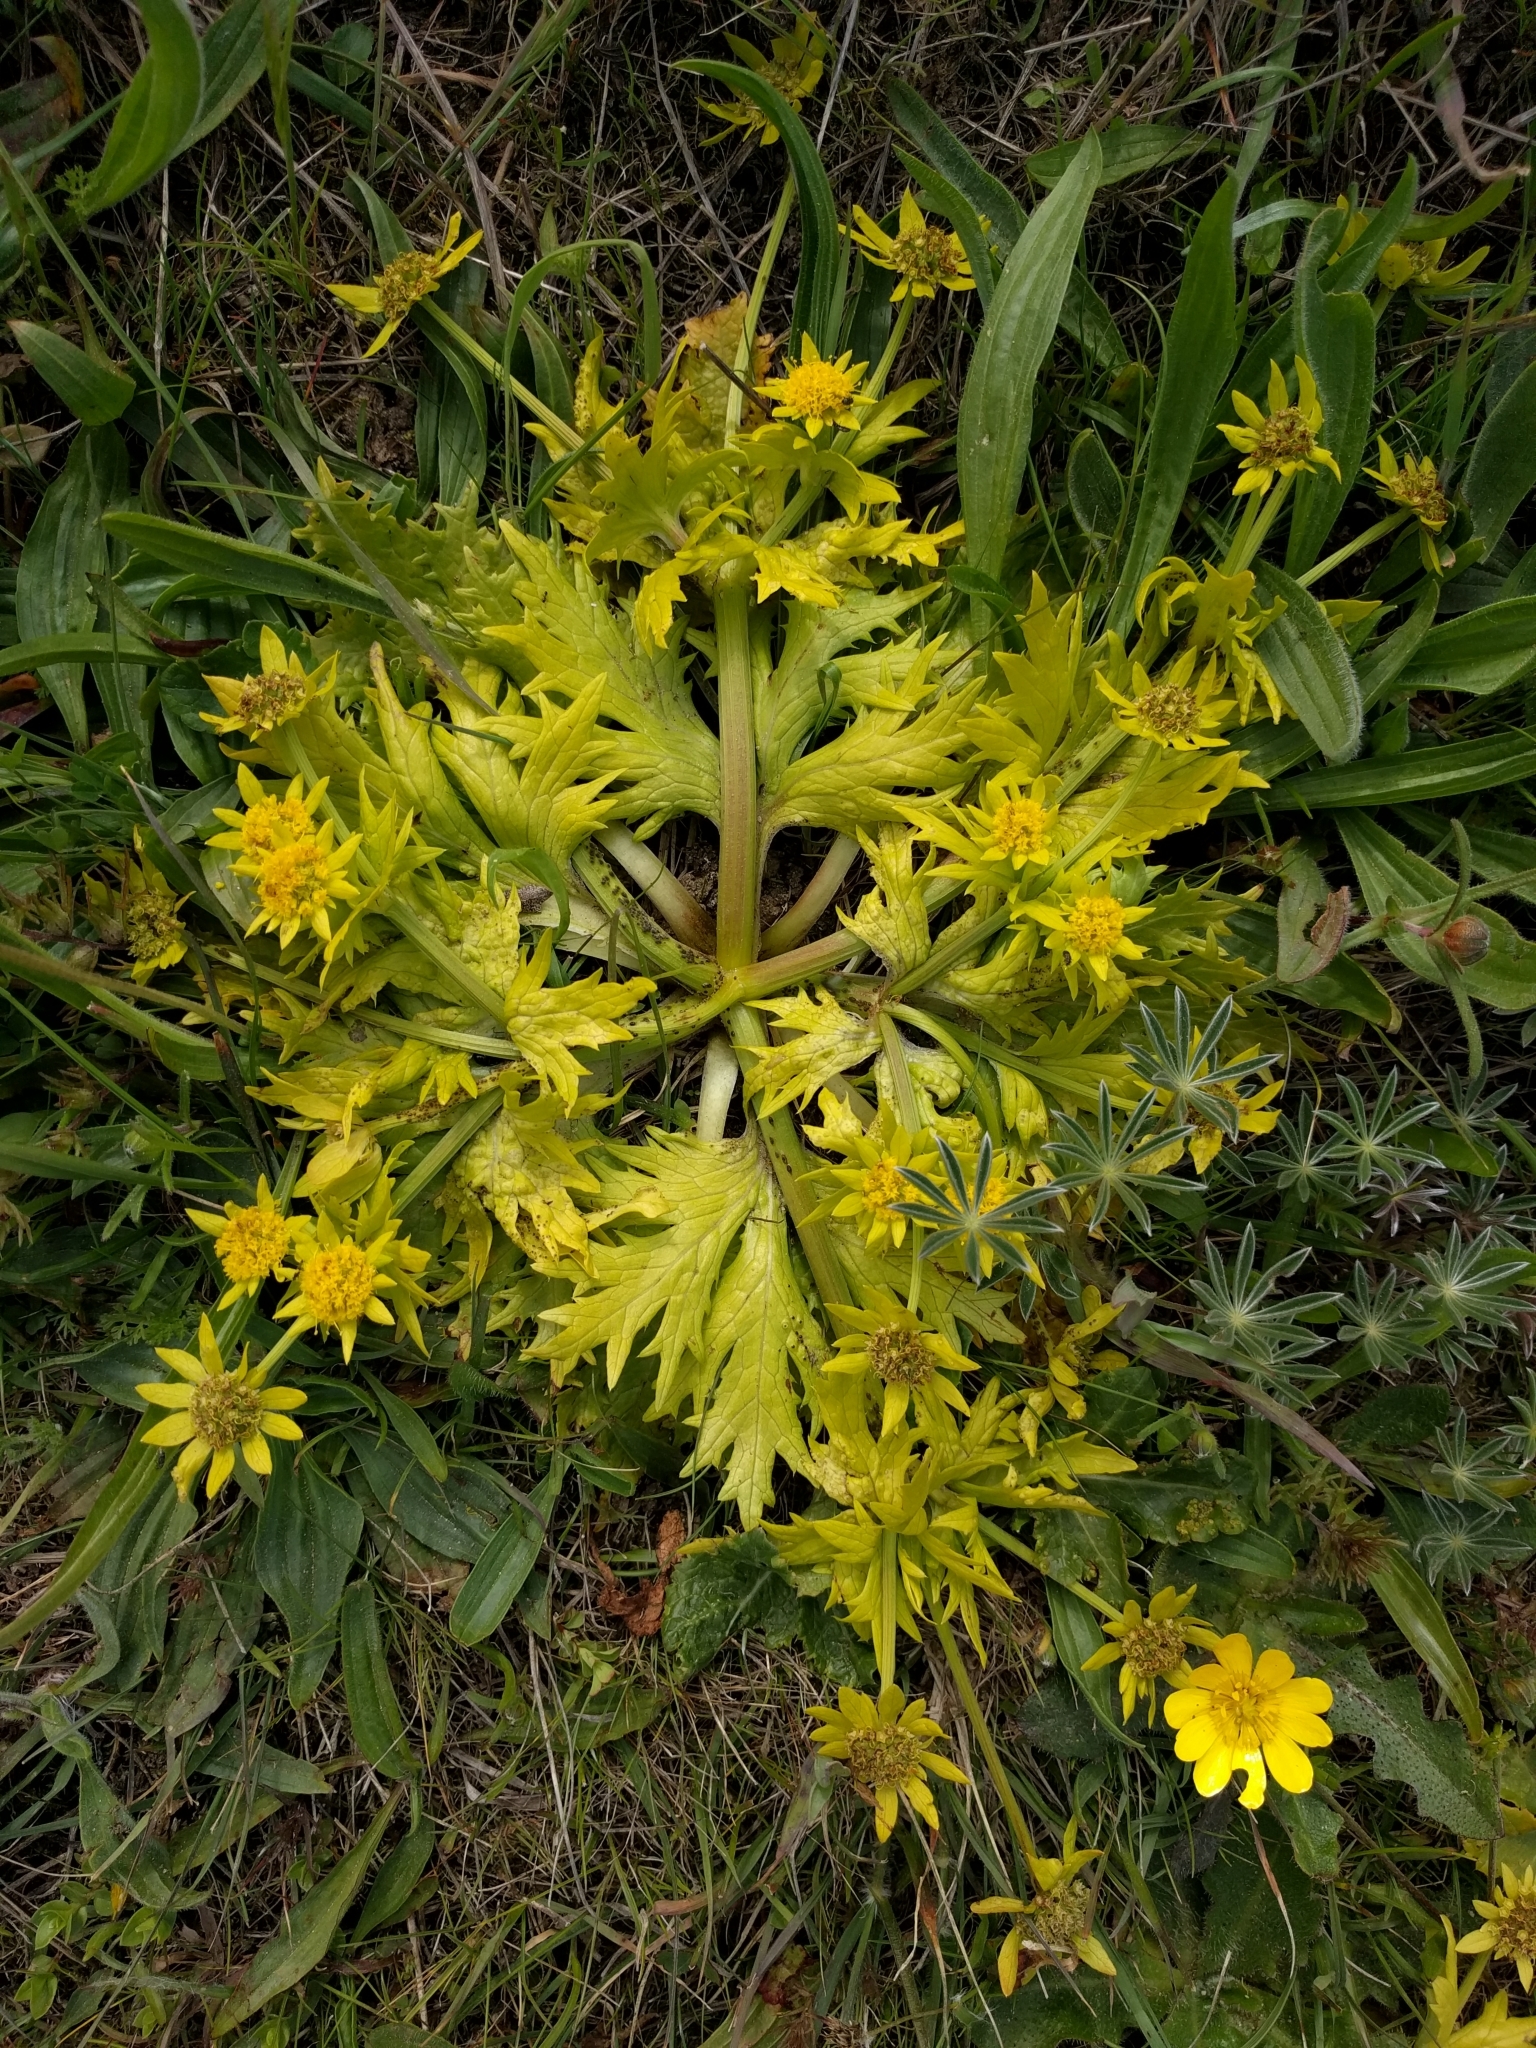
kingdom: Plantae
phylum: Tracheophyta
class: Magnoliopsida
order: Apiales
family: Apiaceae
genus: Sanicula
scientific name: Sanicula arctopoides
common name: Footsteps-of-spring
